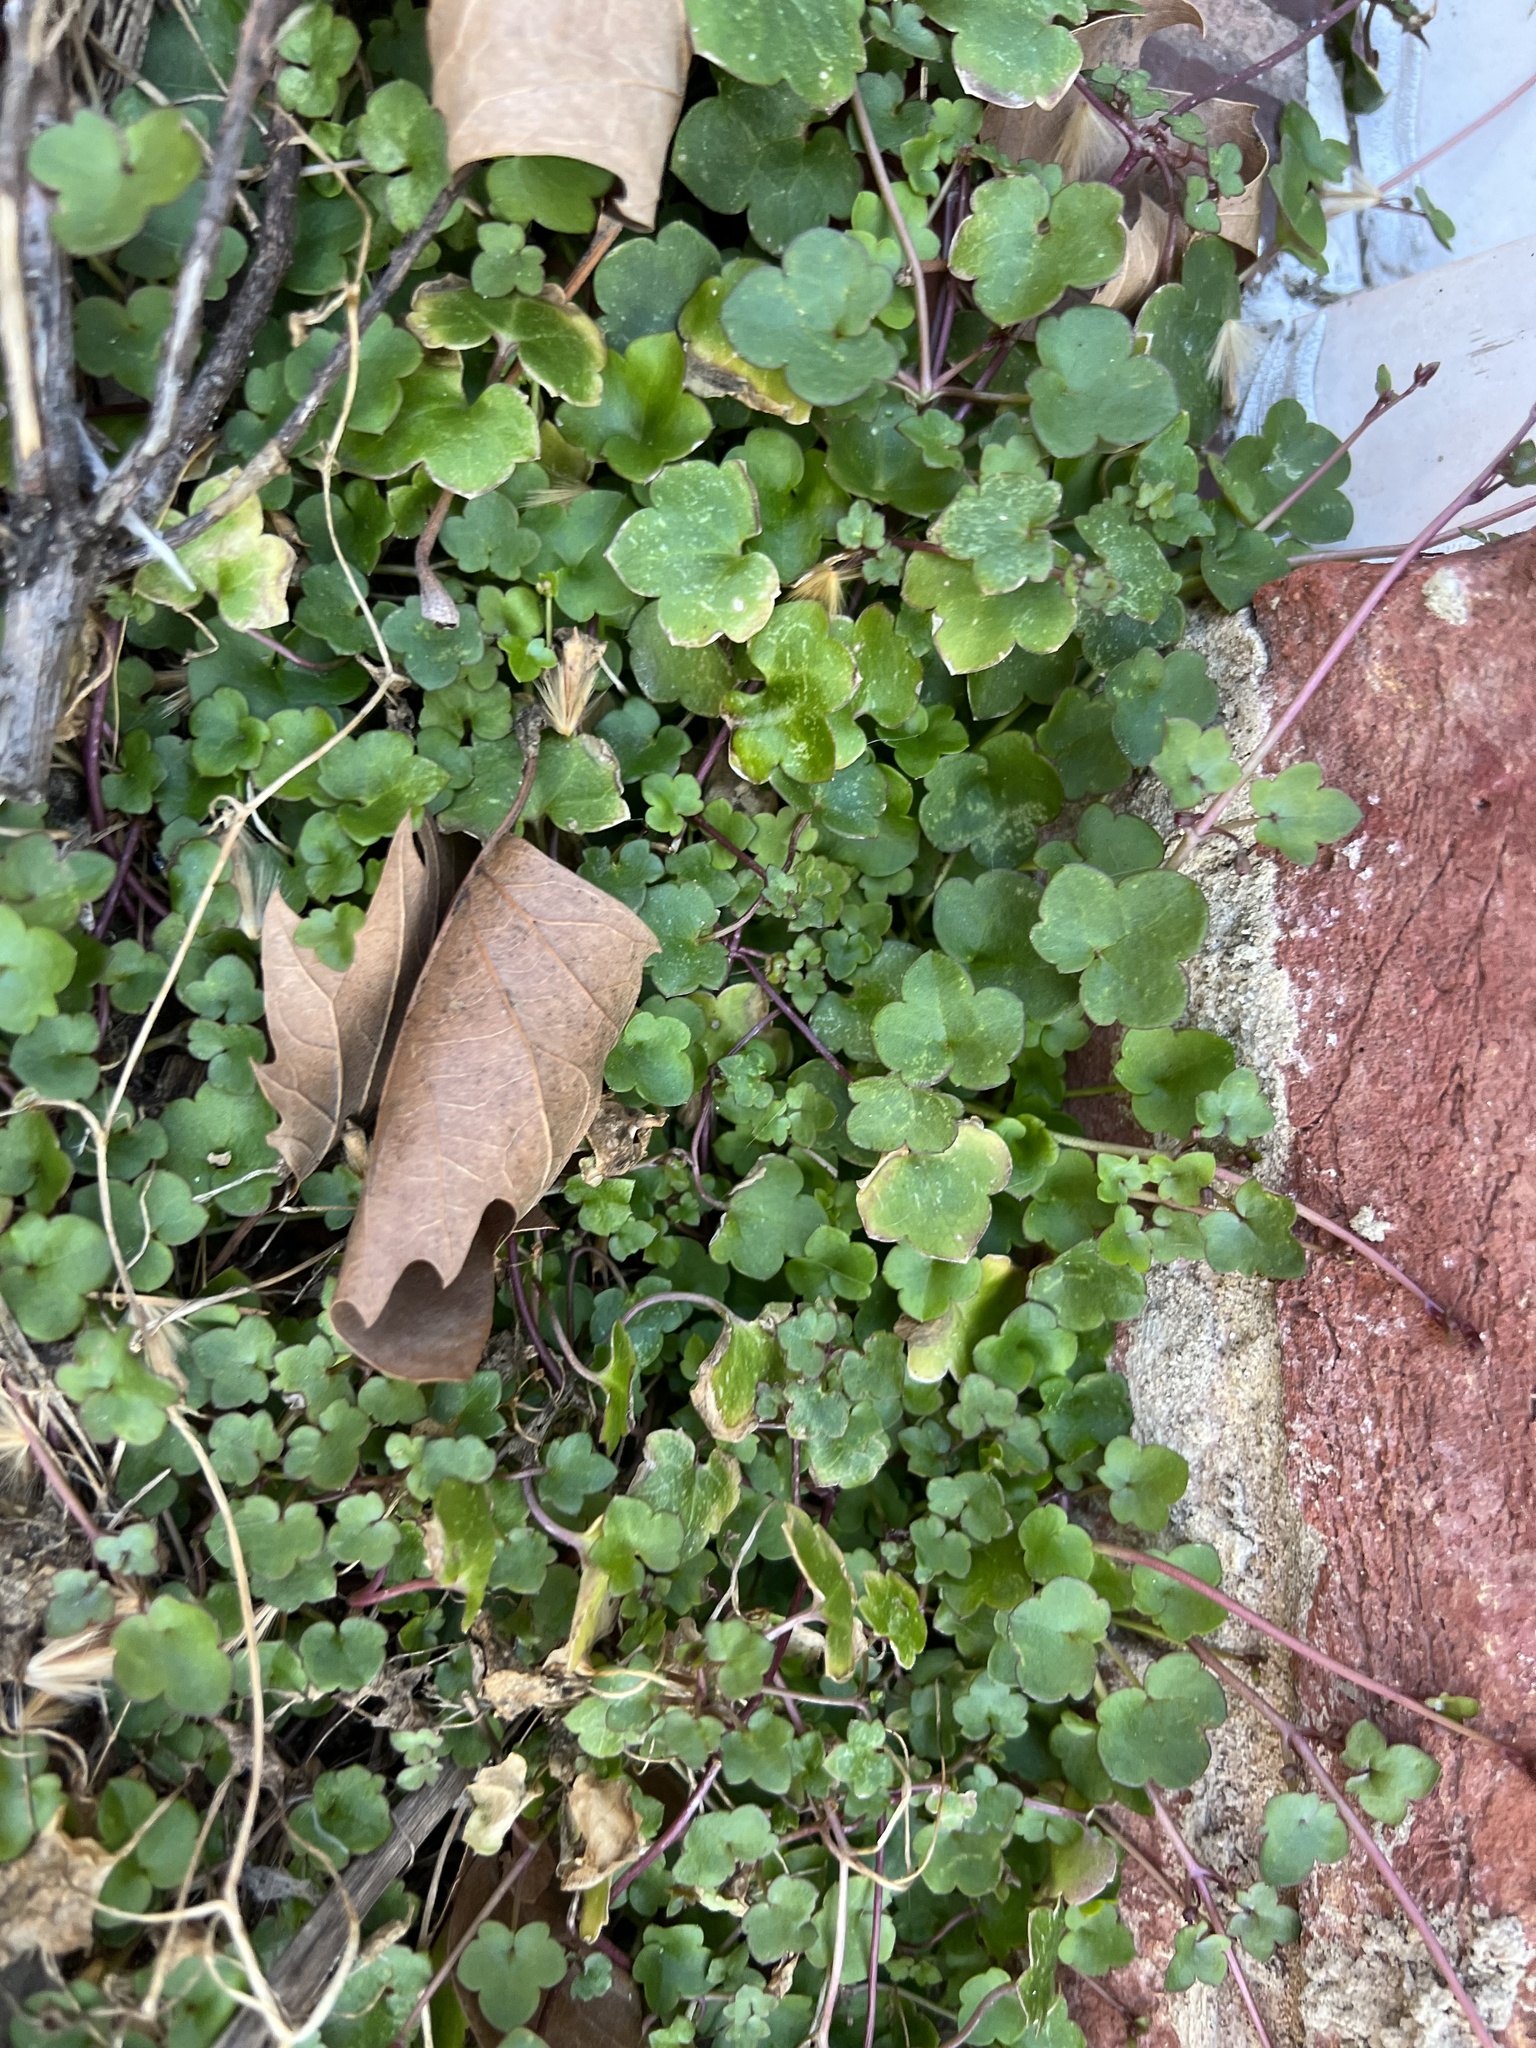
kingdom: Plantae
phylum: Tracheophyta
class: Magnoliopsida
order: Lamiales
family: Plantaginaceae
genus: Cymbalaria
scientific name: Cymbalaria muralis
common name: Ivy-leaved toadflax
